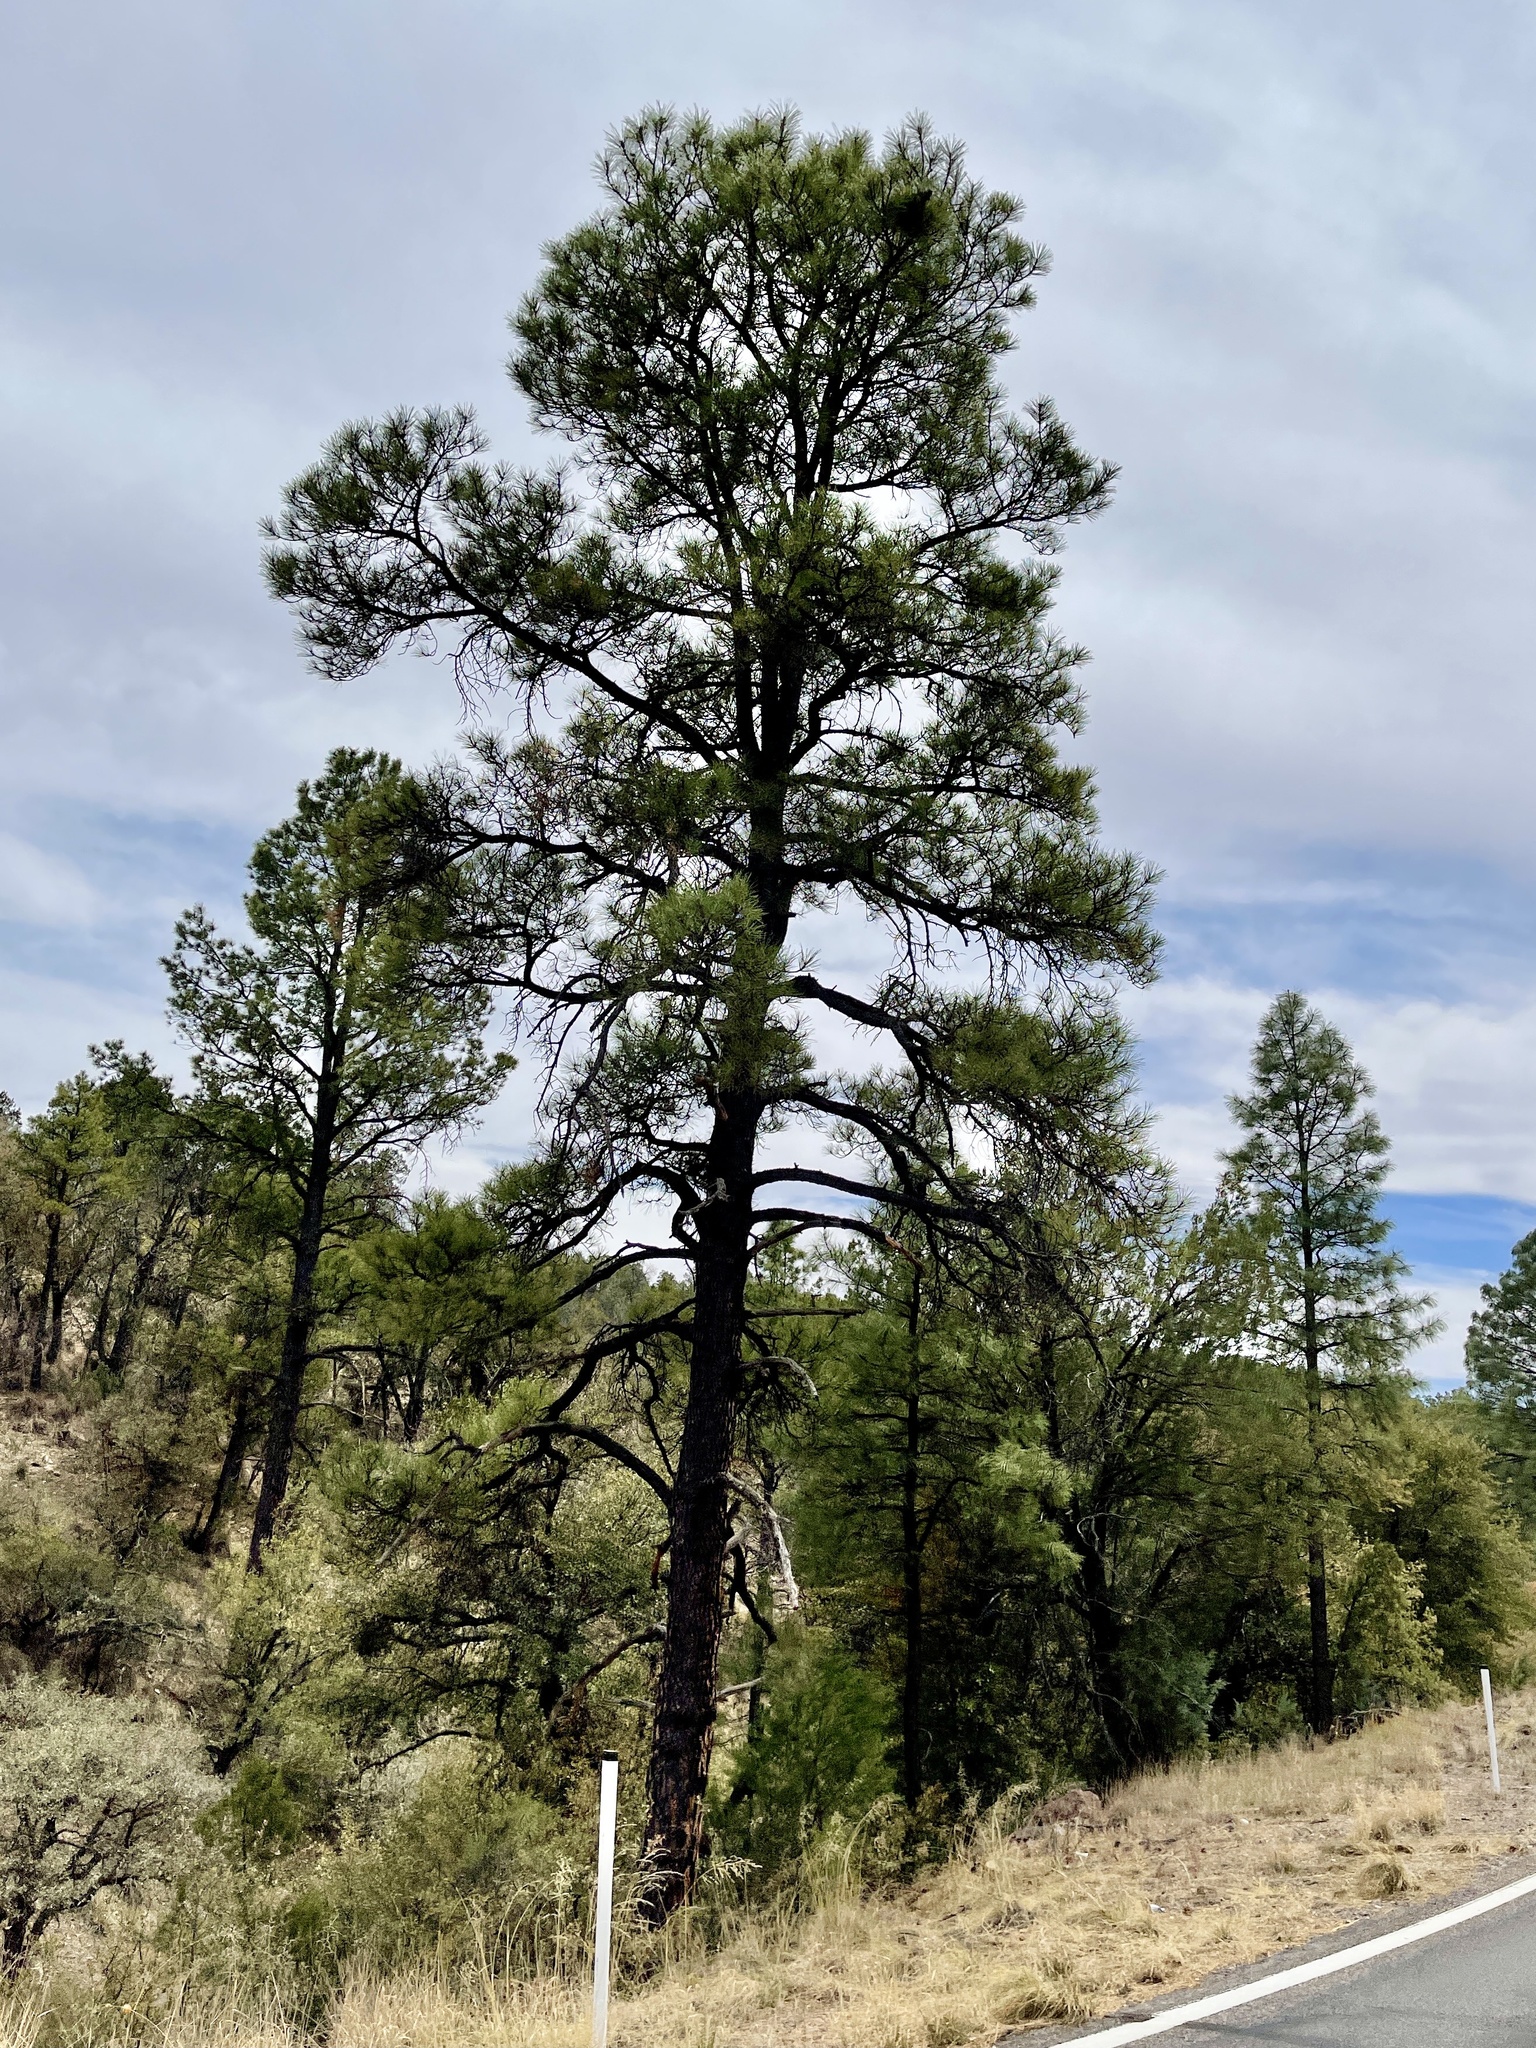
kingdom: Plantae
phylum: Tracheophyta
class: Pinopsida
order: Pinales
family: Pinaceae
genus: Pinus
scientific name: Pinus ponderosa
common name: Western yellow-pine
